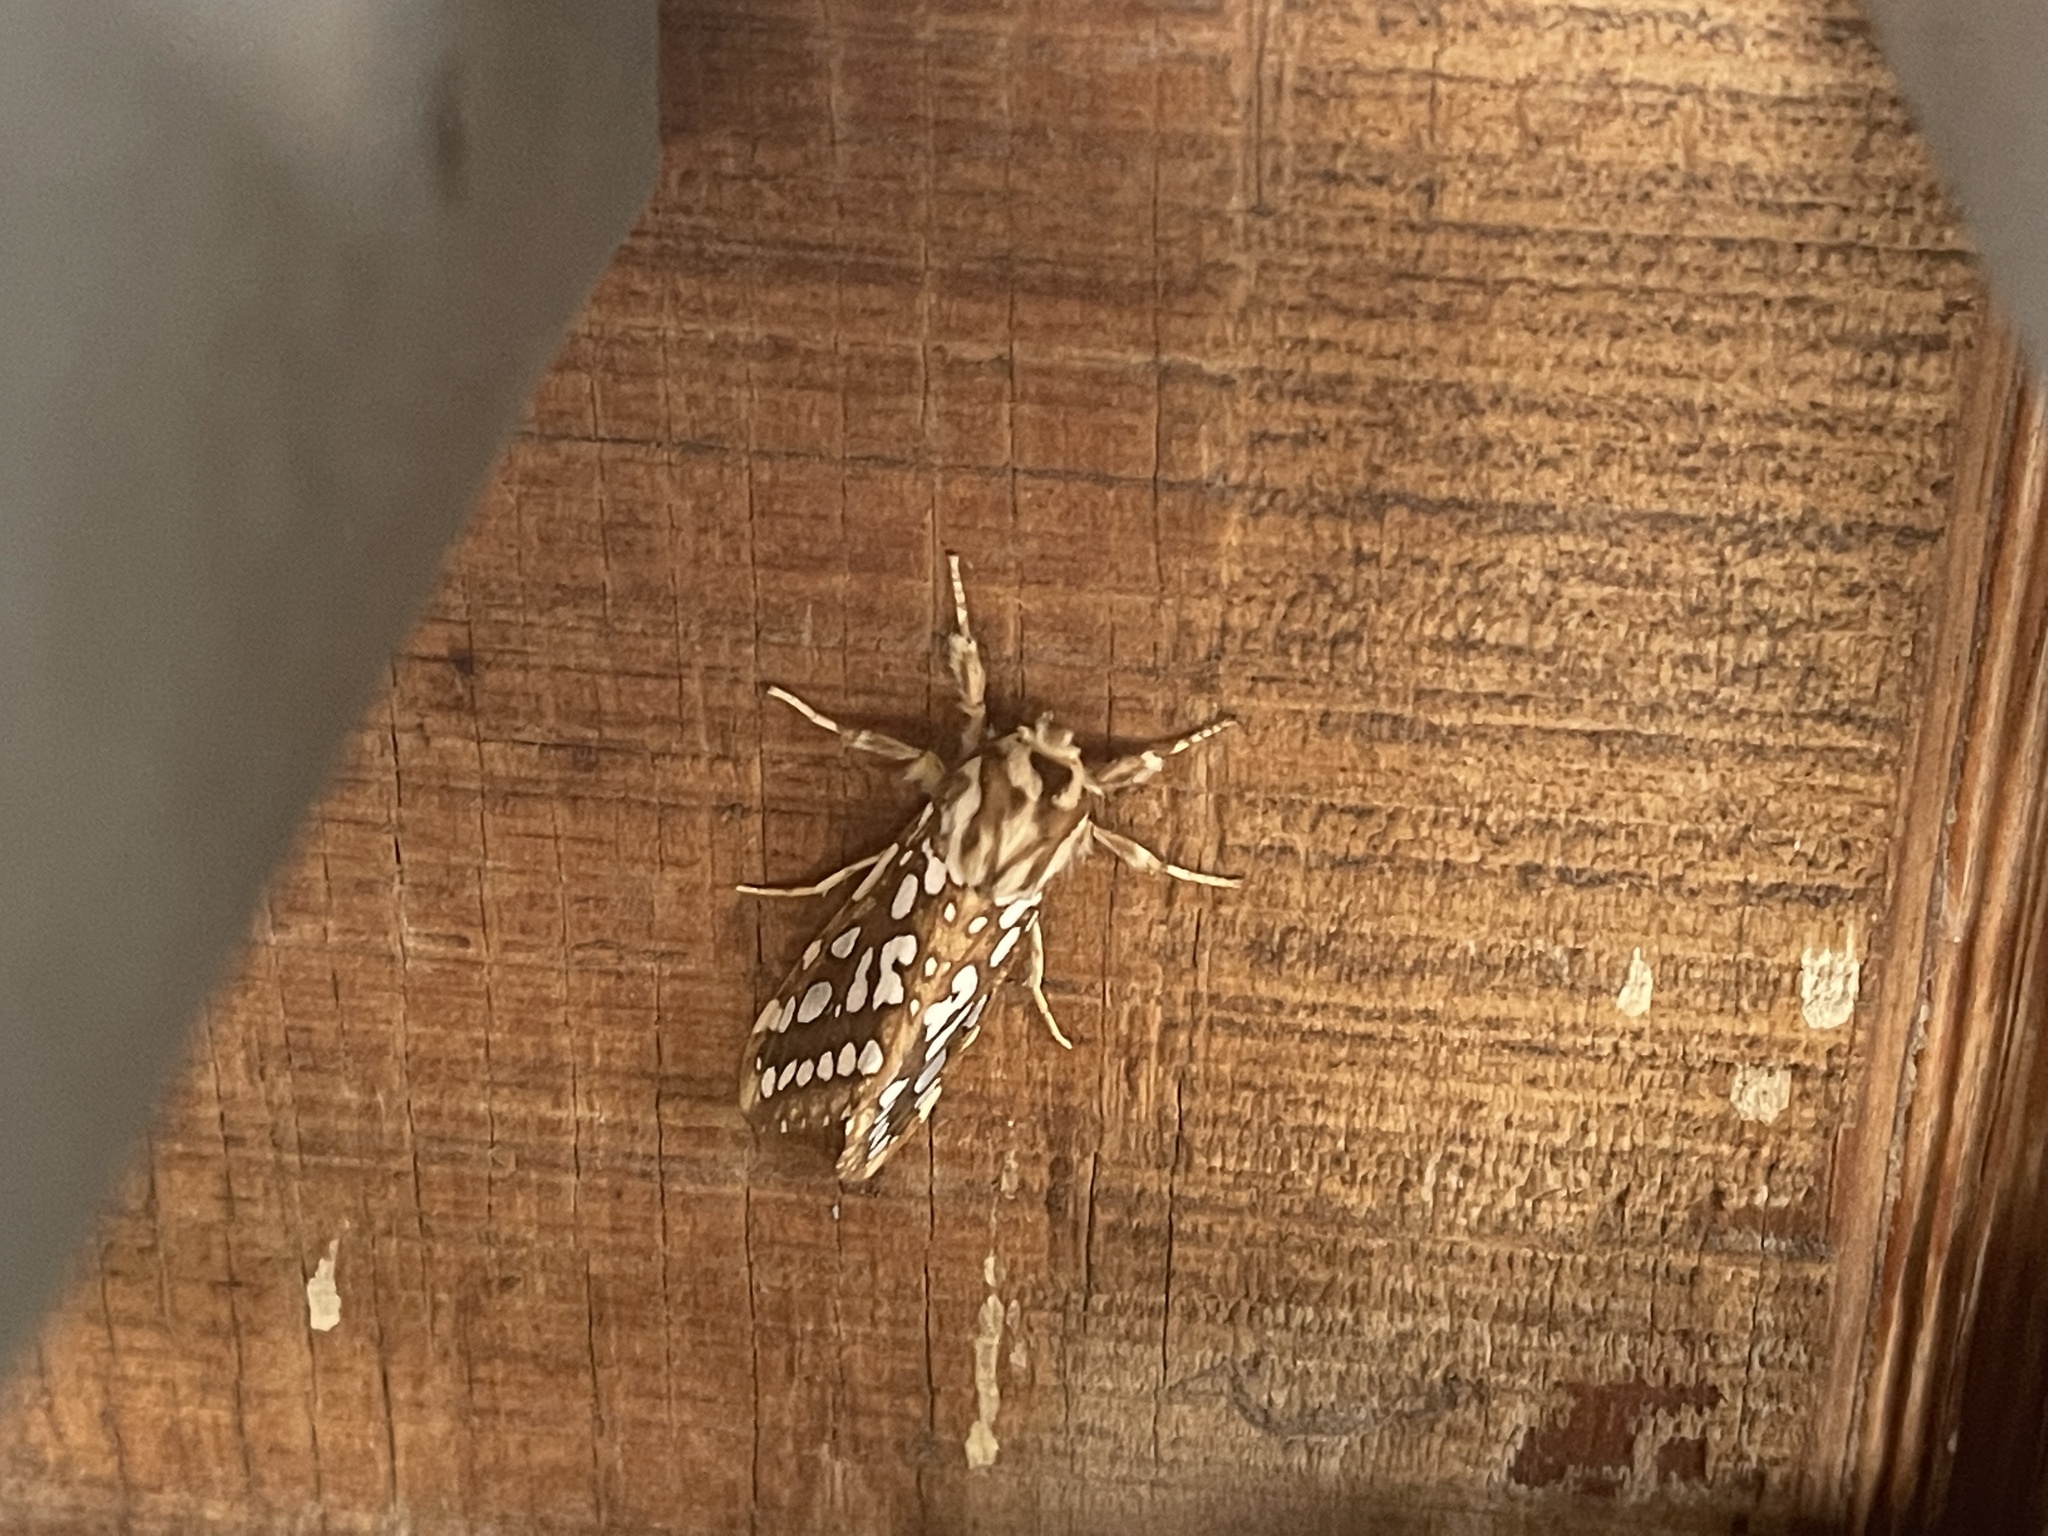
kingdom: Animalia
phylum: Arthropoda
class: Insecta
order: Lepidoptera
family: Erebidae
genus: Lophocampa
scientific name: Lophocampa argentata
